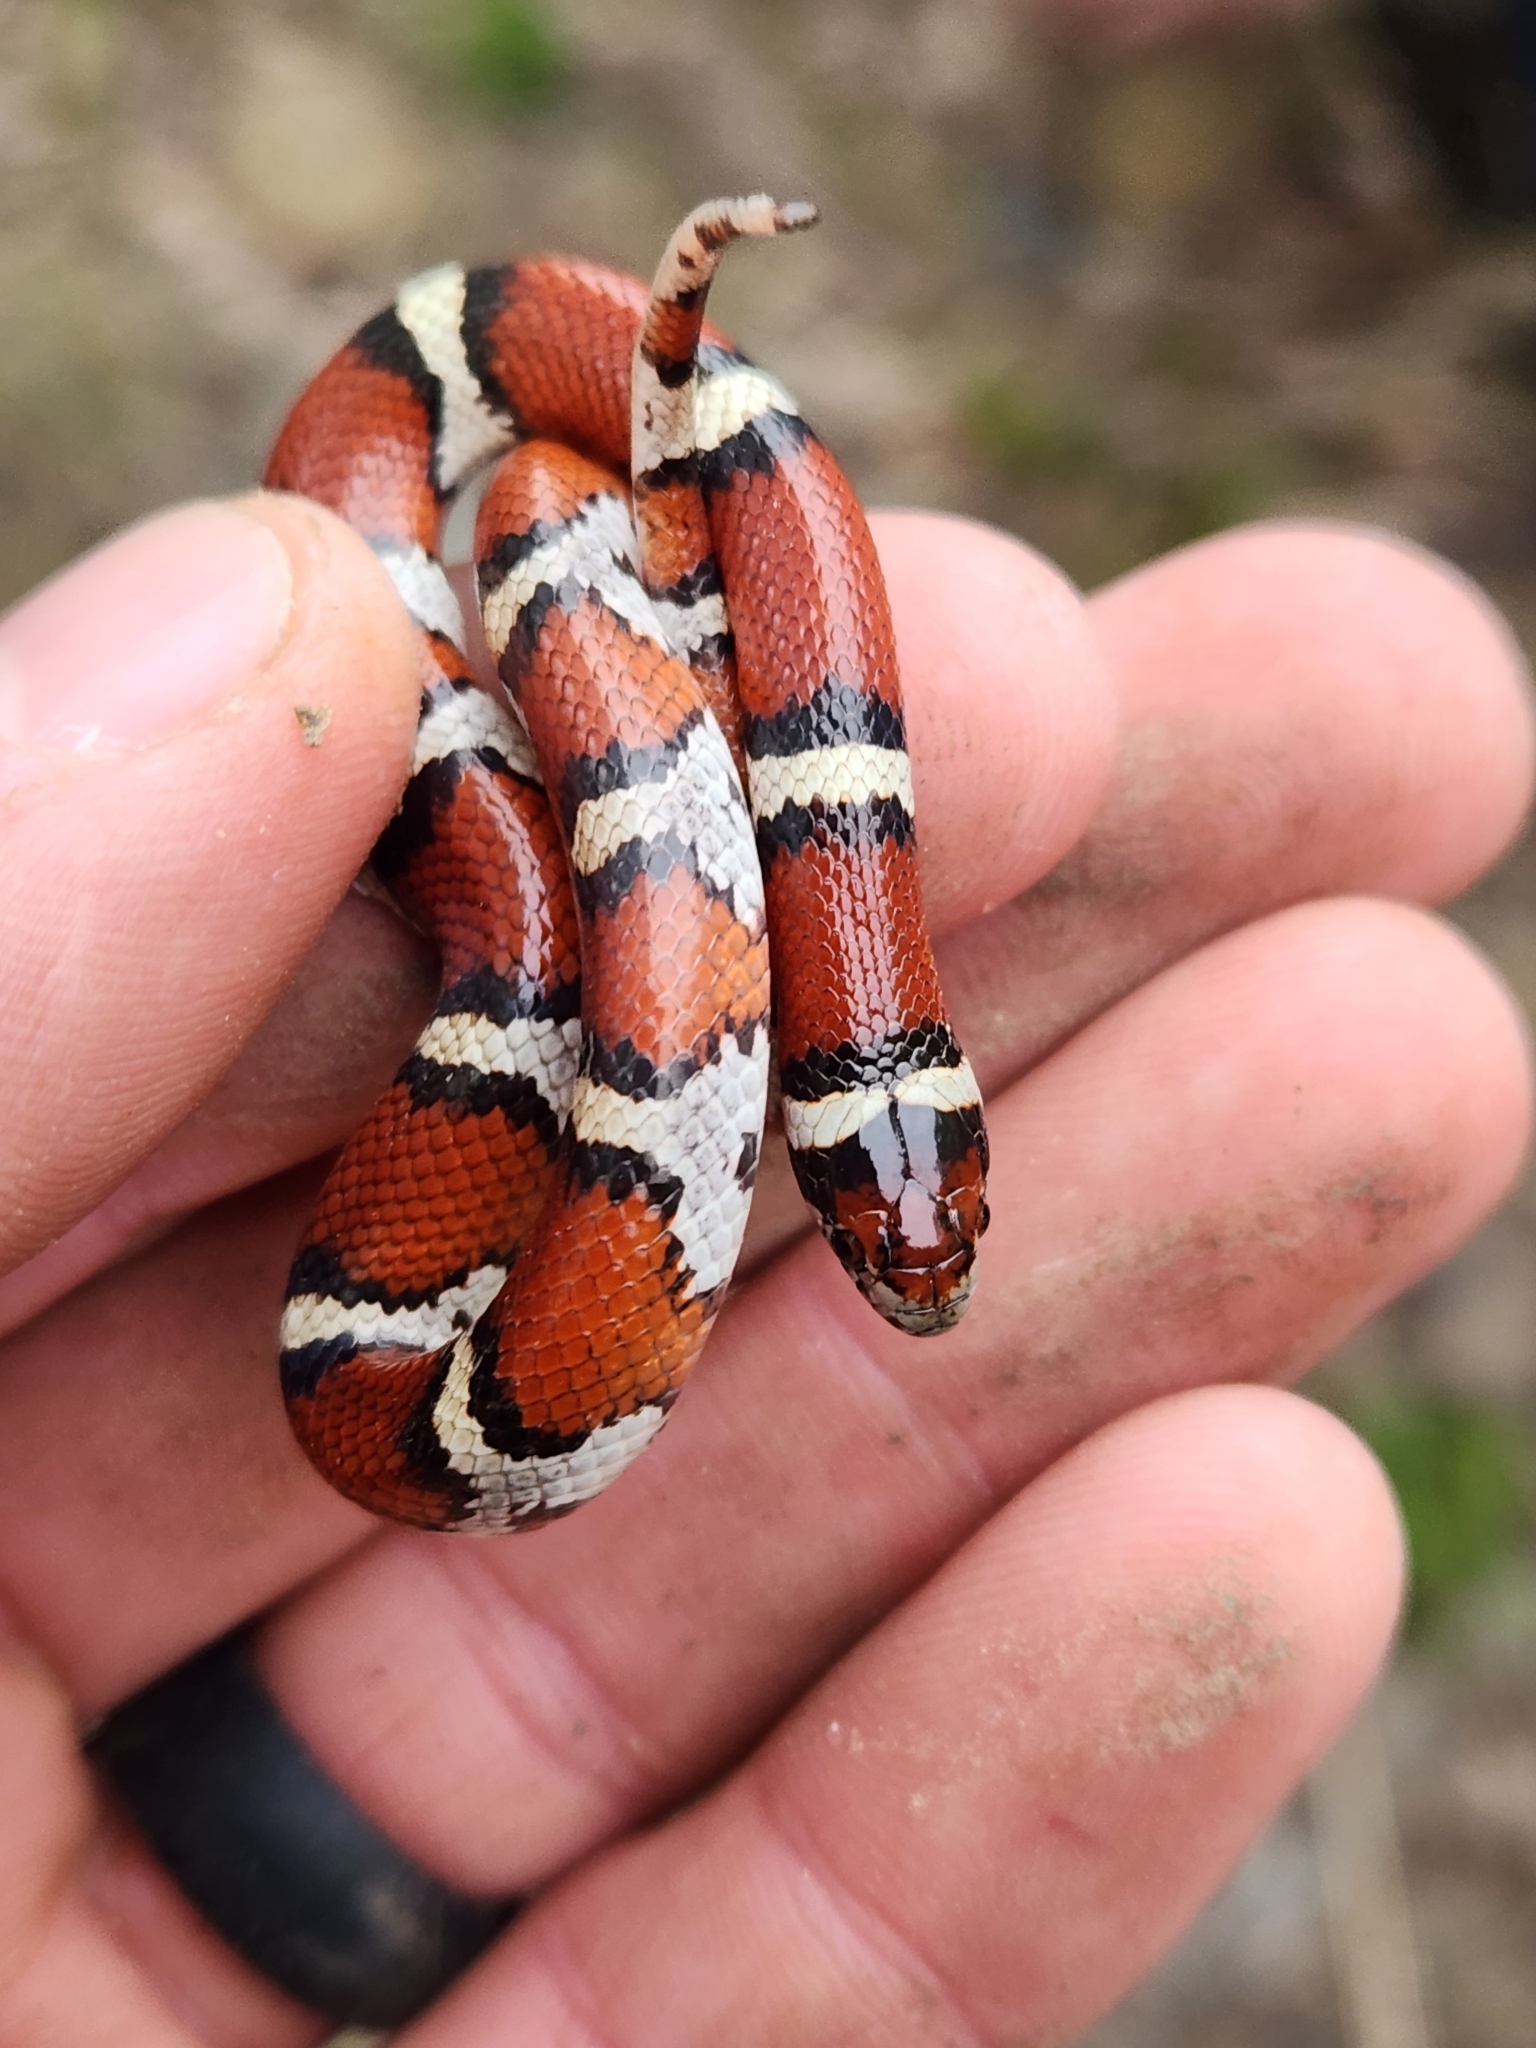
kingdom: Animalia
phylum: Chordata
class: Squamata
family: Colubridae
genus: Lampropeltis
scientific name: Lampropeltis gentilis
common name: Central plains milksnake
